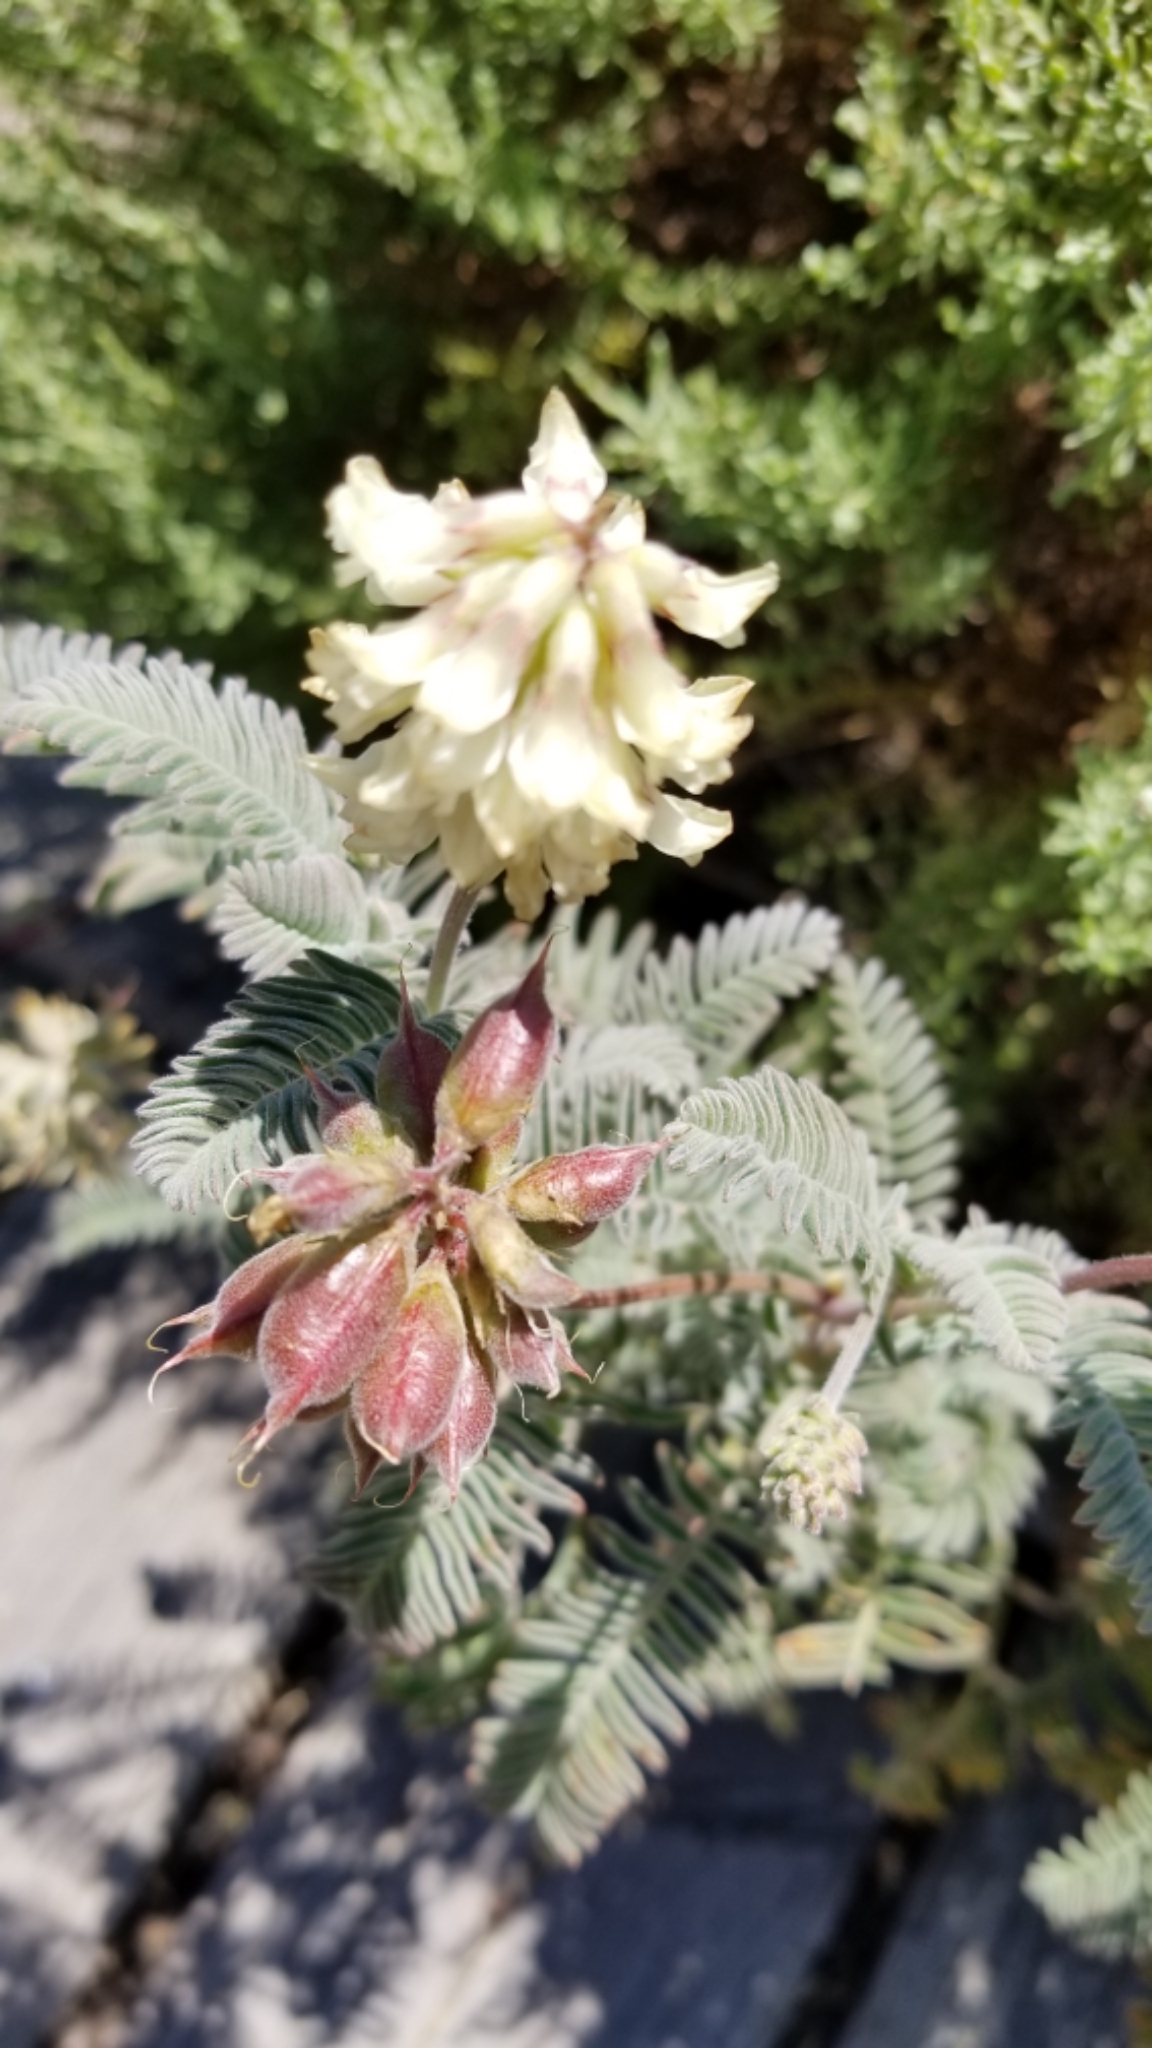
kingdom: Plantae
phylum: Tracheophyta
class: Magnoliopsida
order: Fabales
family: Fabaceae
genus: Astragalus
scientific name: Astragalus nuttallii
